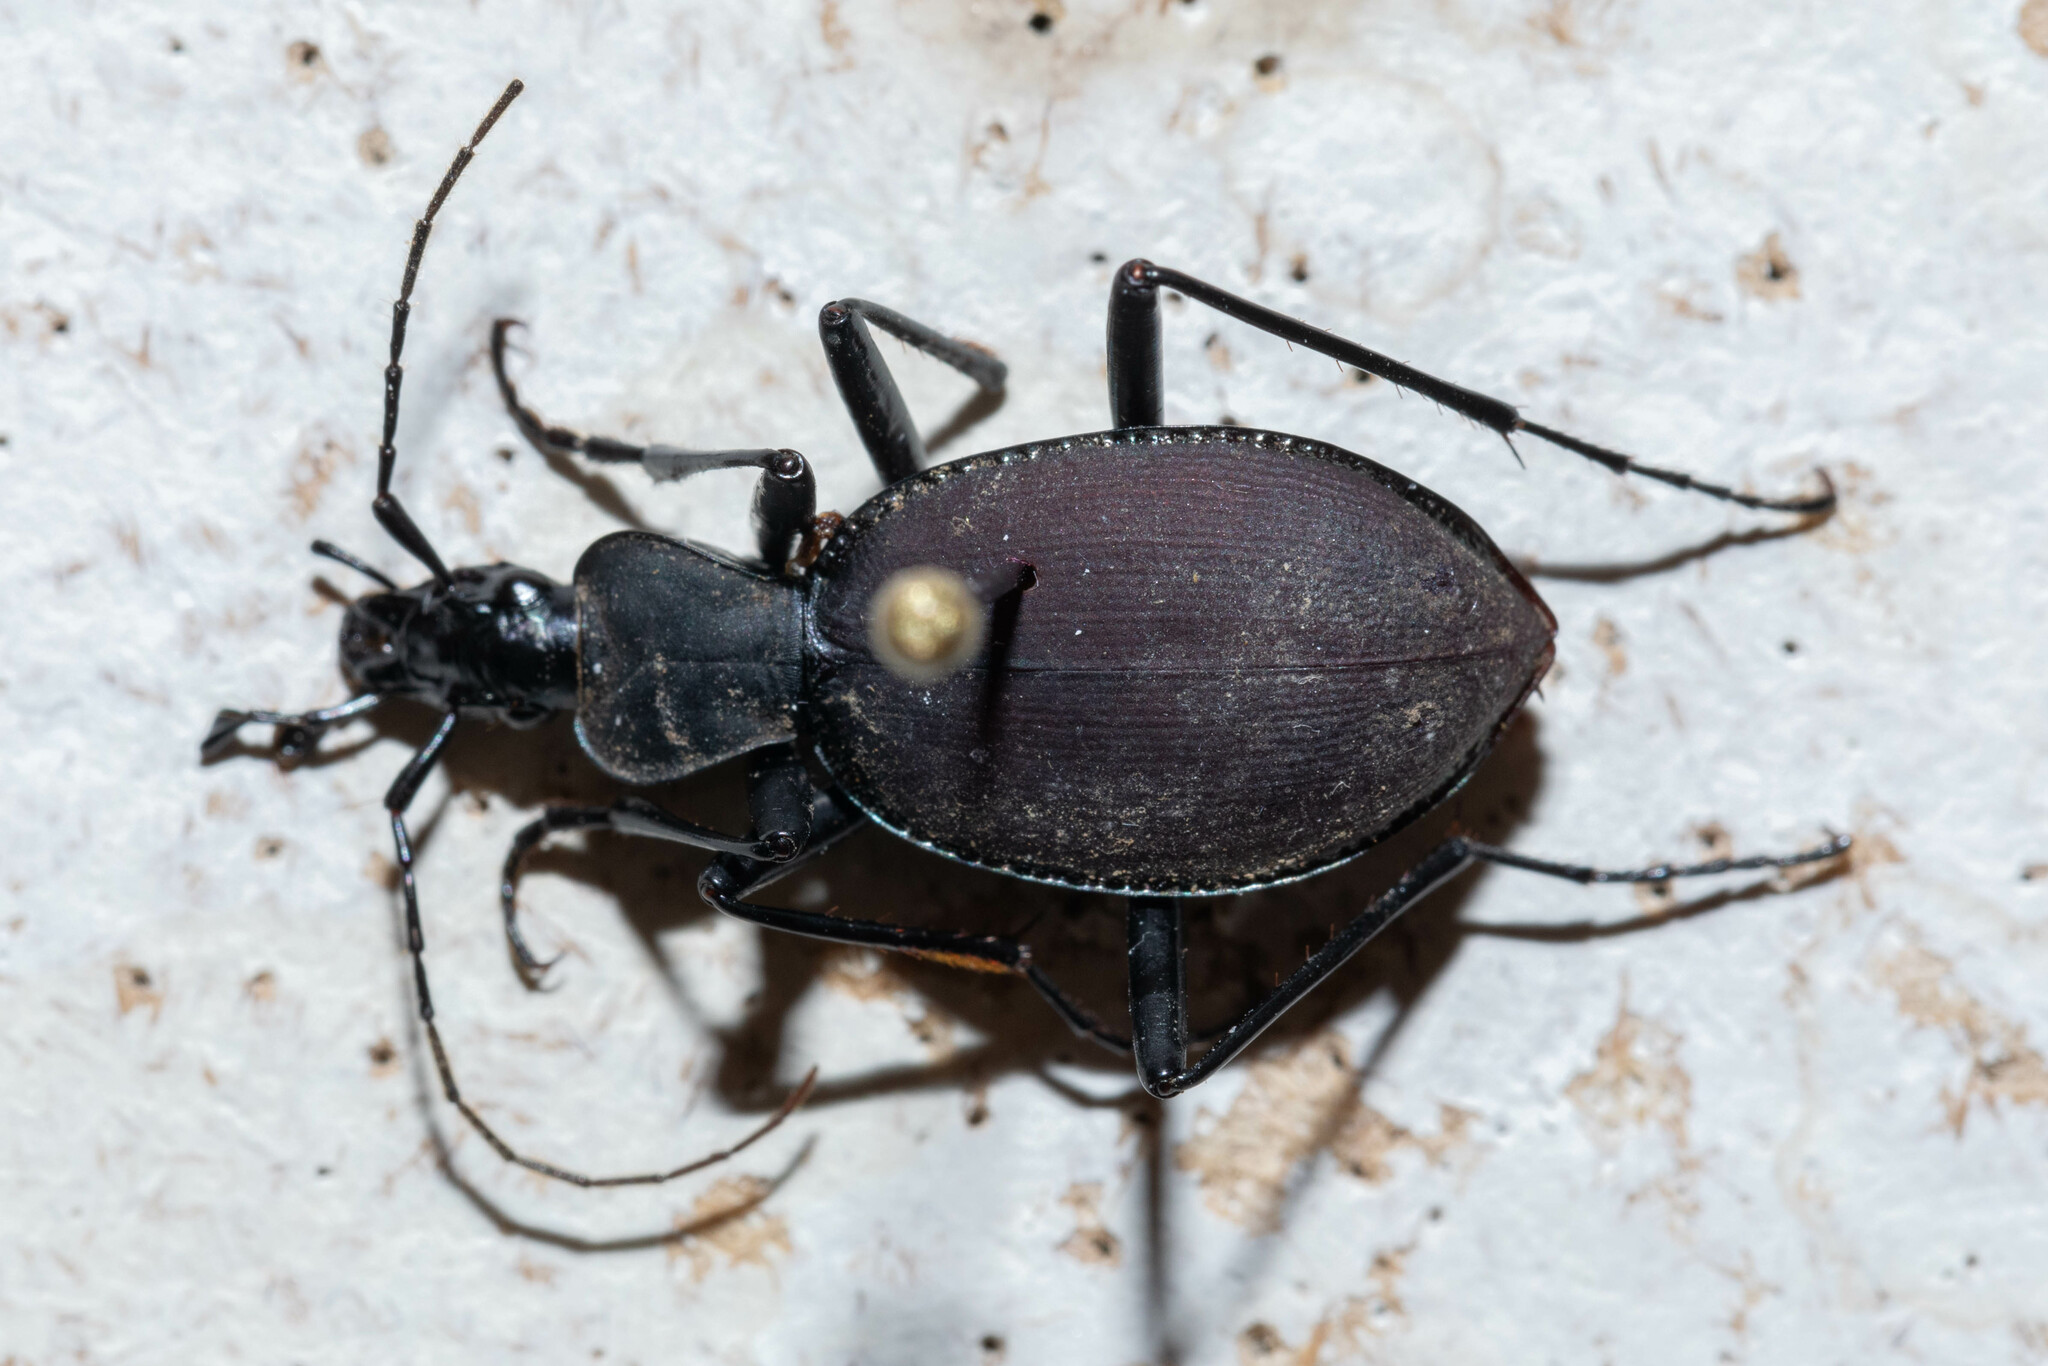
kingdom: Animalia
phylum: Arthropoda
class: Insecta
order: Coleoptera
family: Carabidae
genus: Scaphinotus
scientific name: Scaphinotus angusticollis
